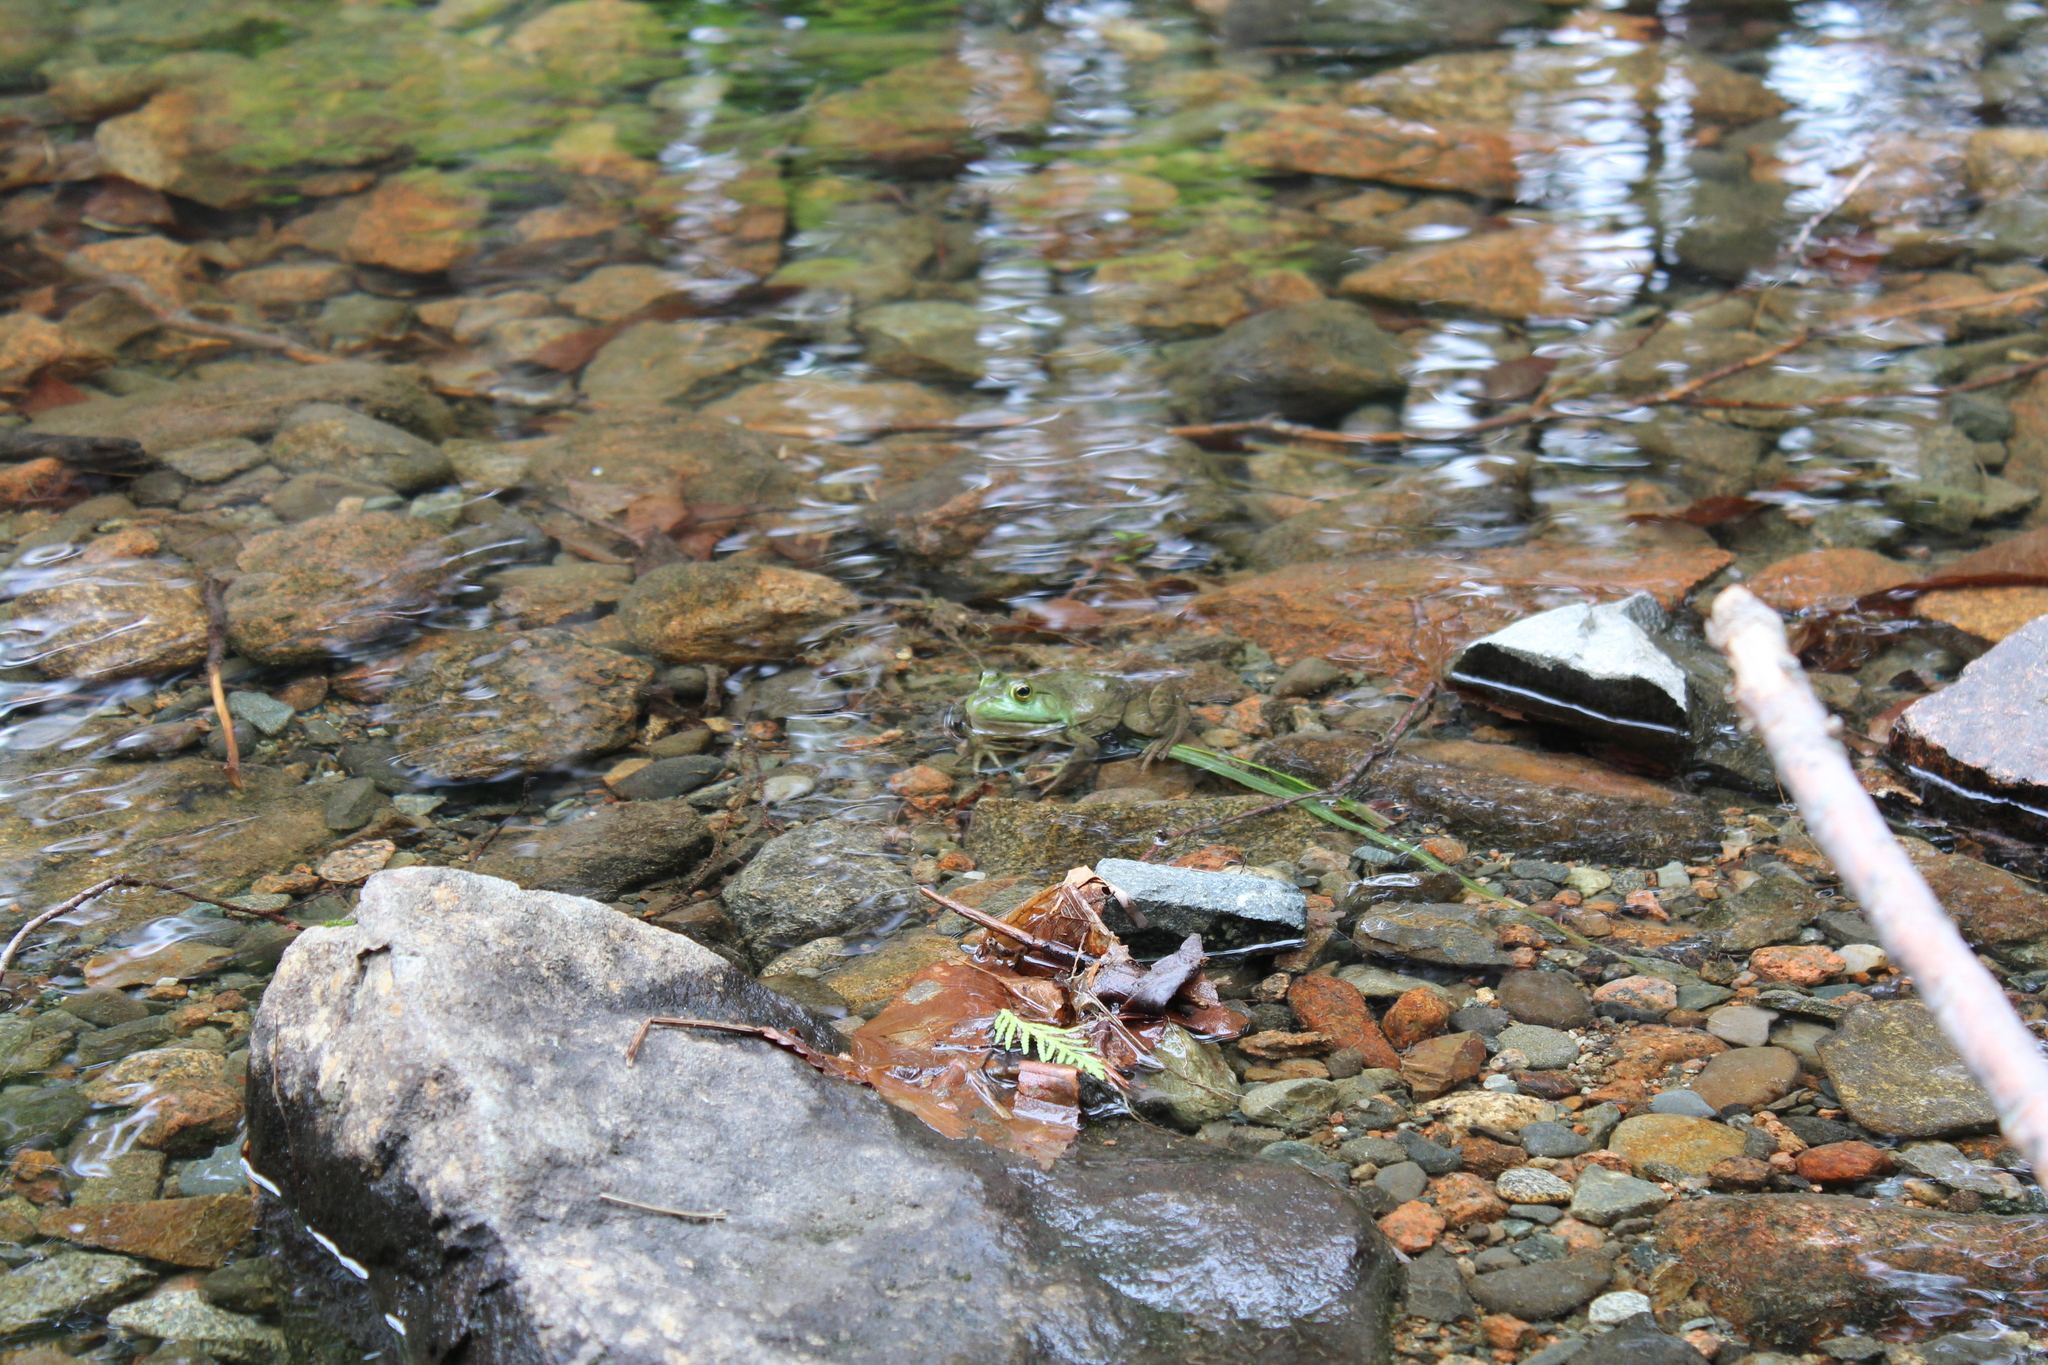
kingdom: Animalia
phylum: Chordata
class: Amphibia
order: Anura
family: Ranidae
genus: Lithobates
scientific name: Lithobates catesbeianus
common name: American bullfrog
